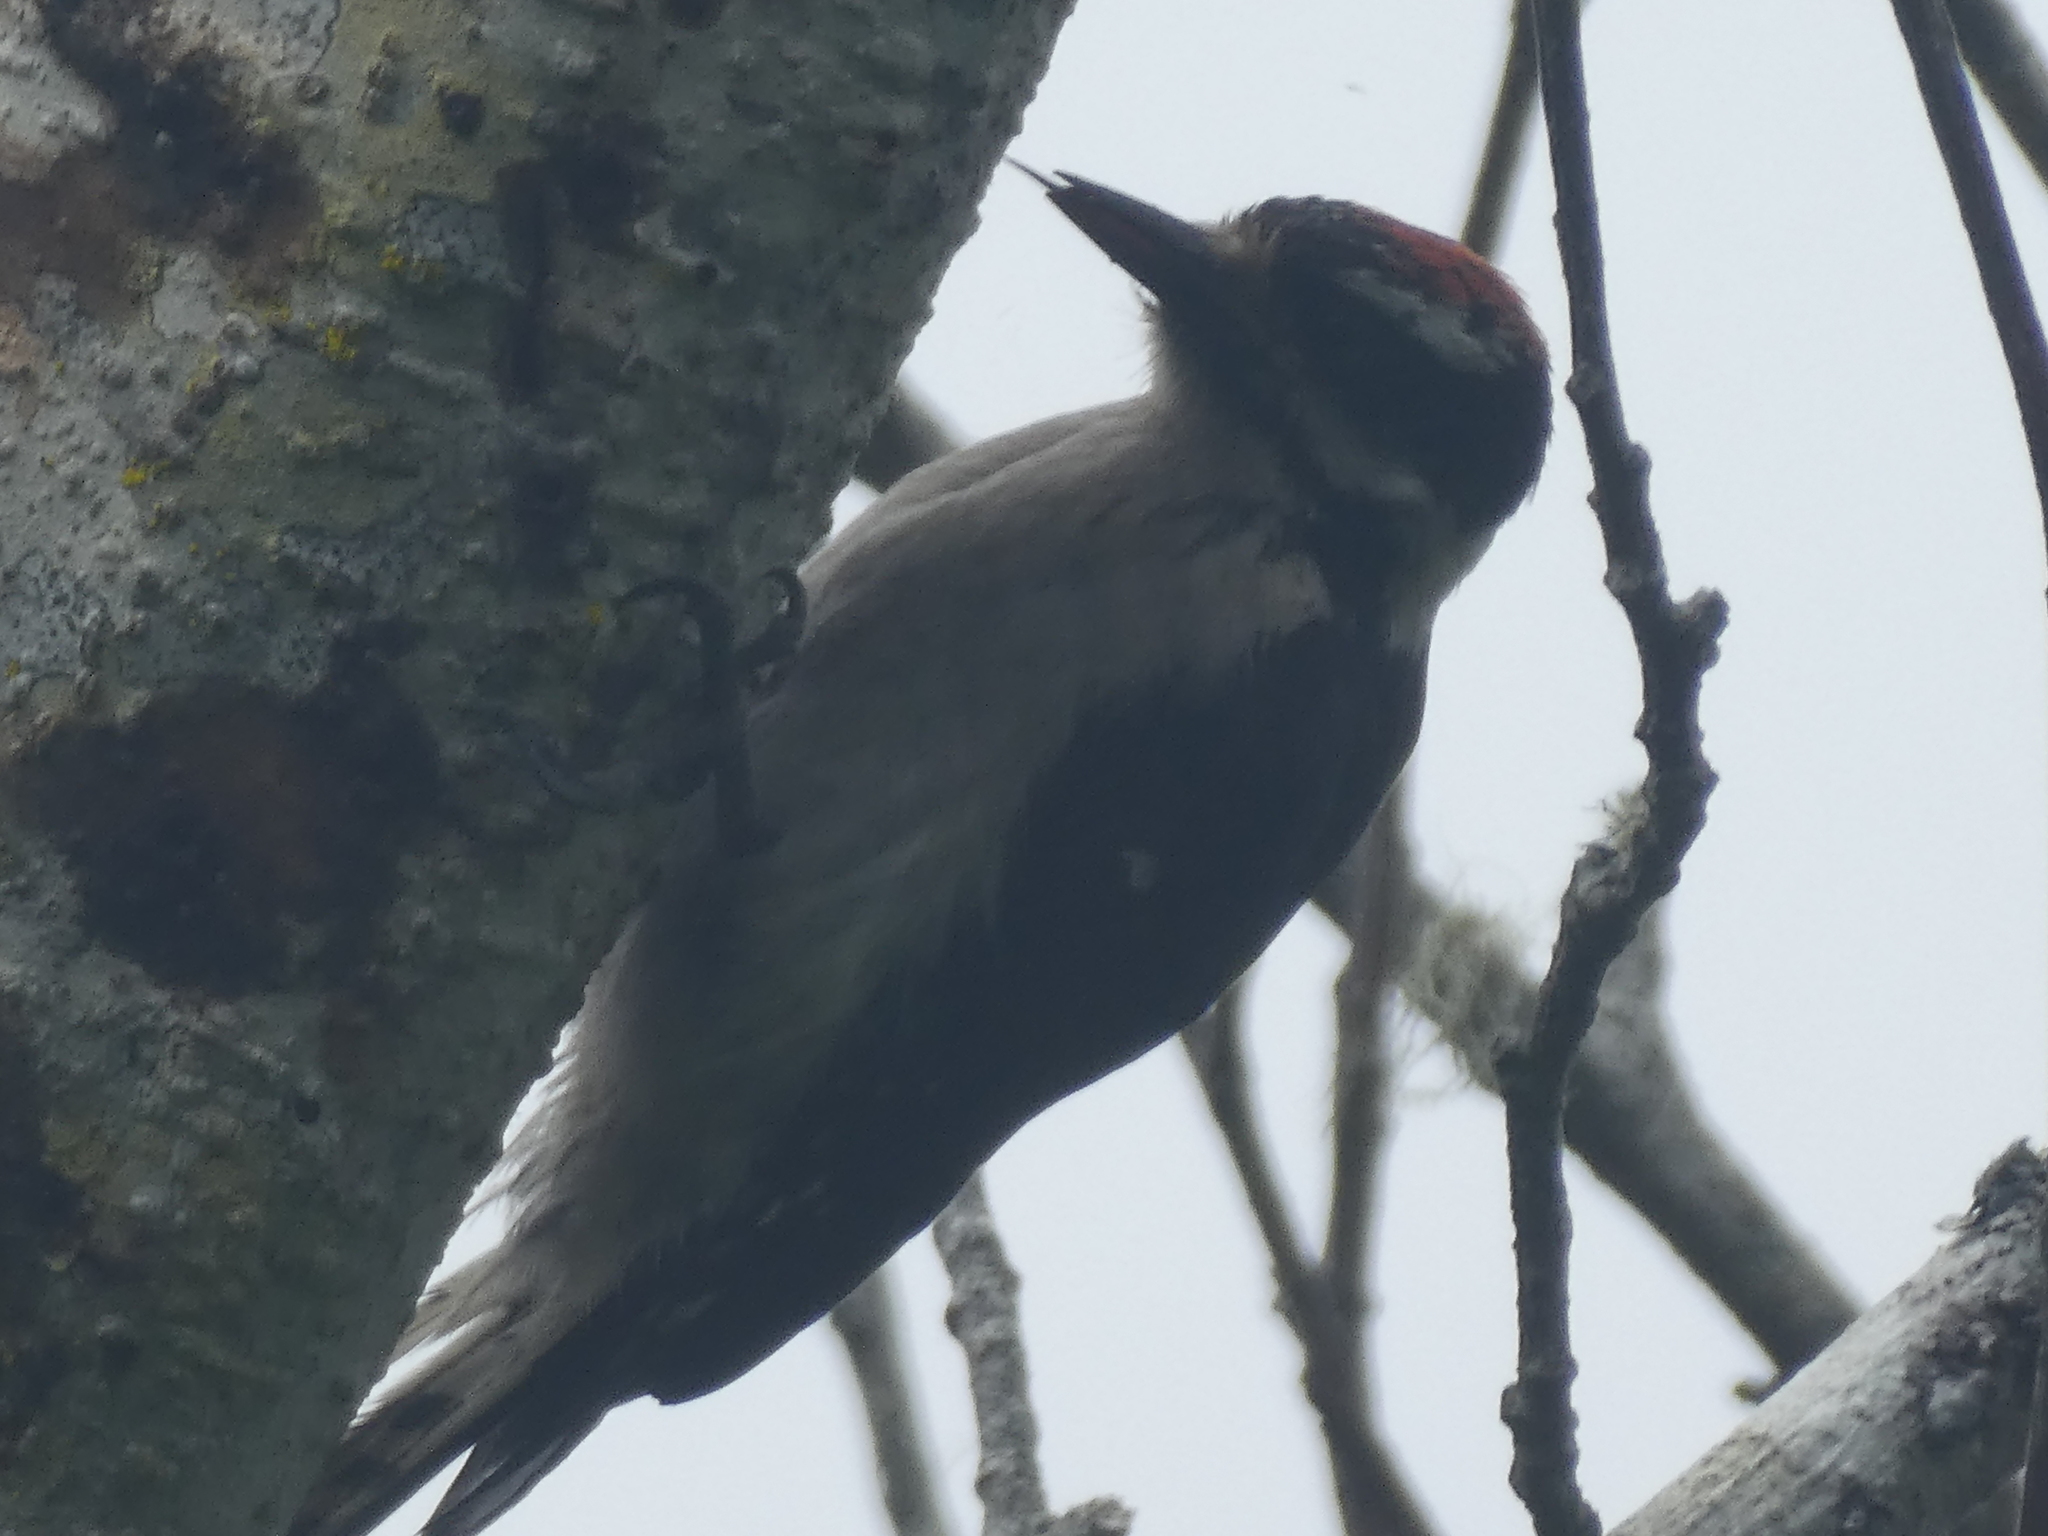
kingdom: Animalia
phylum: Chordata
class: Aves
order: Piciformes
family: Picidae
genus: Leuconotopicus
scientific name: Leuconotopicus villosus
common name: Hairy woodpecker
